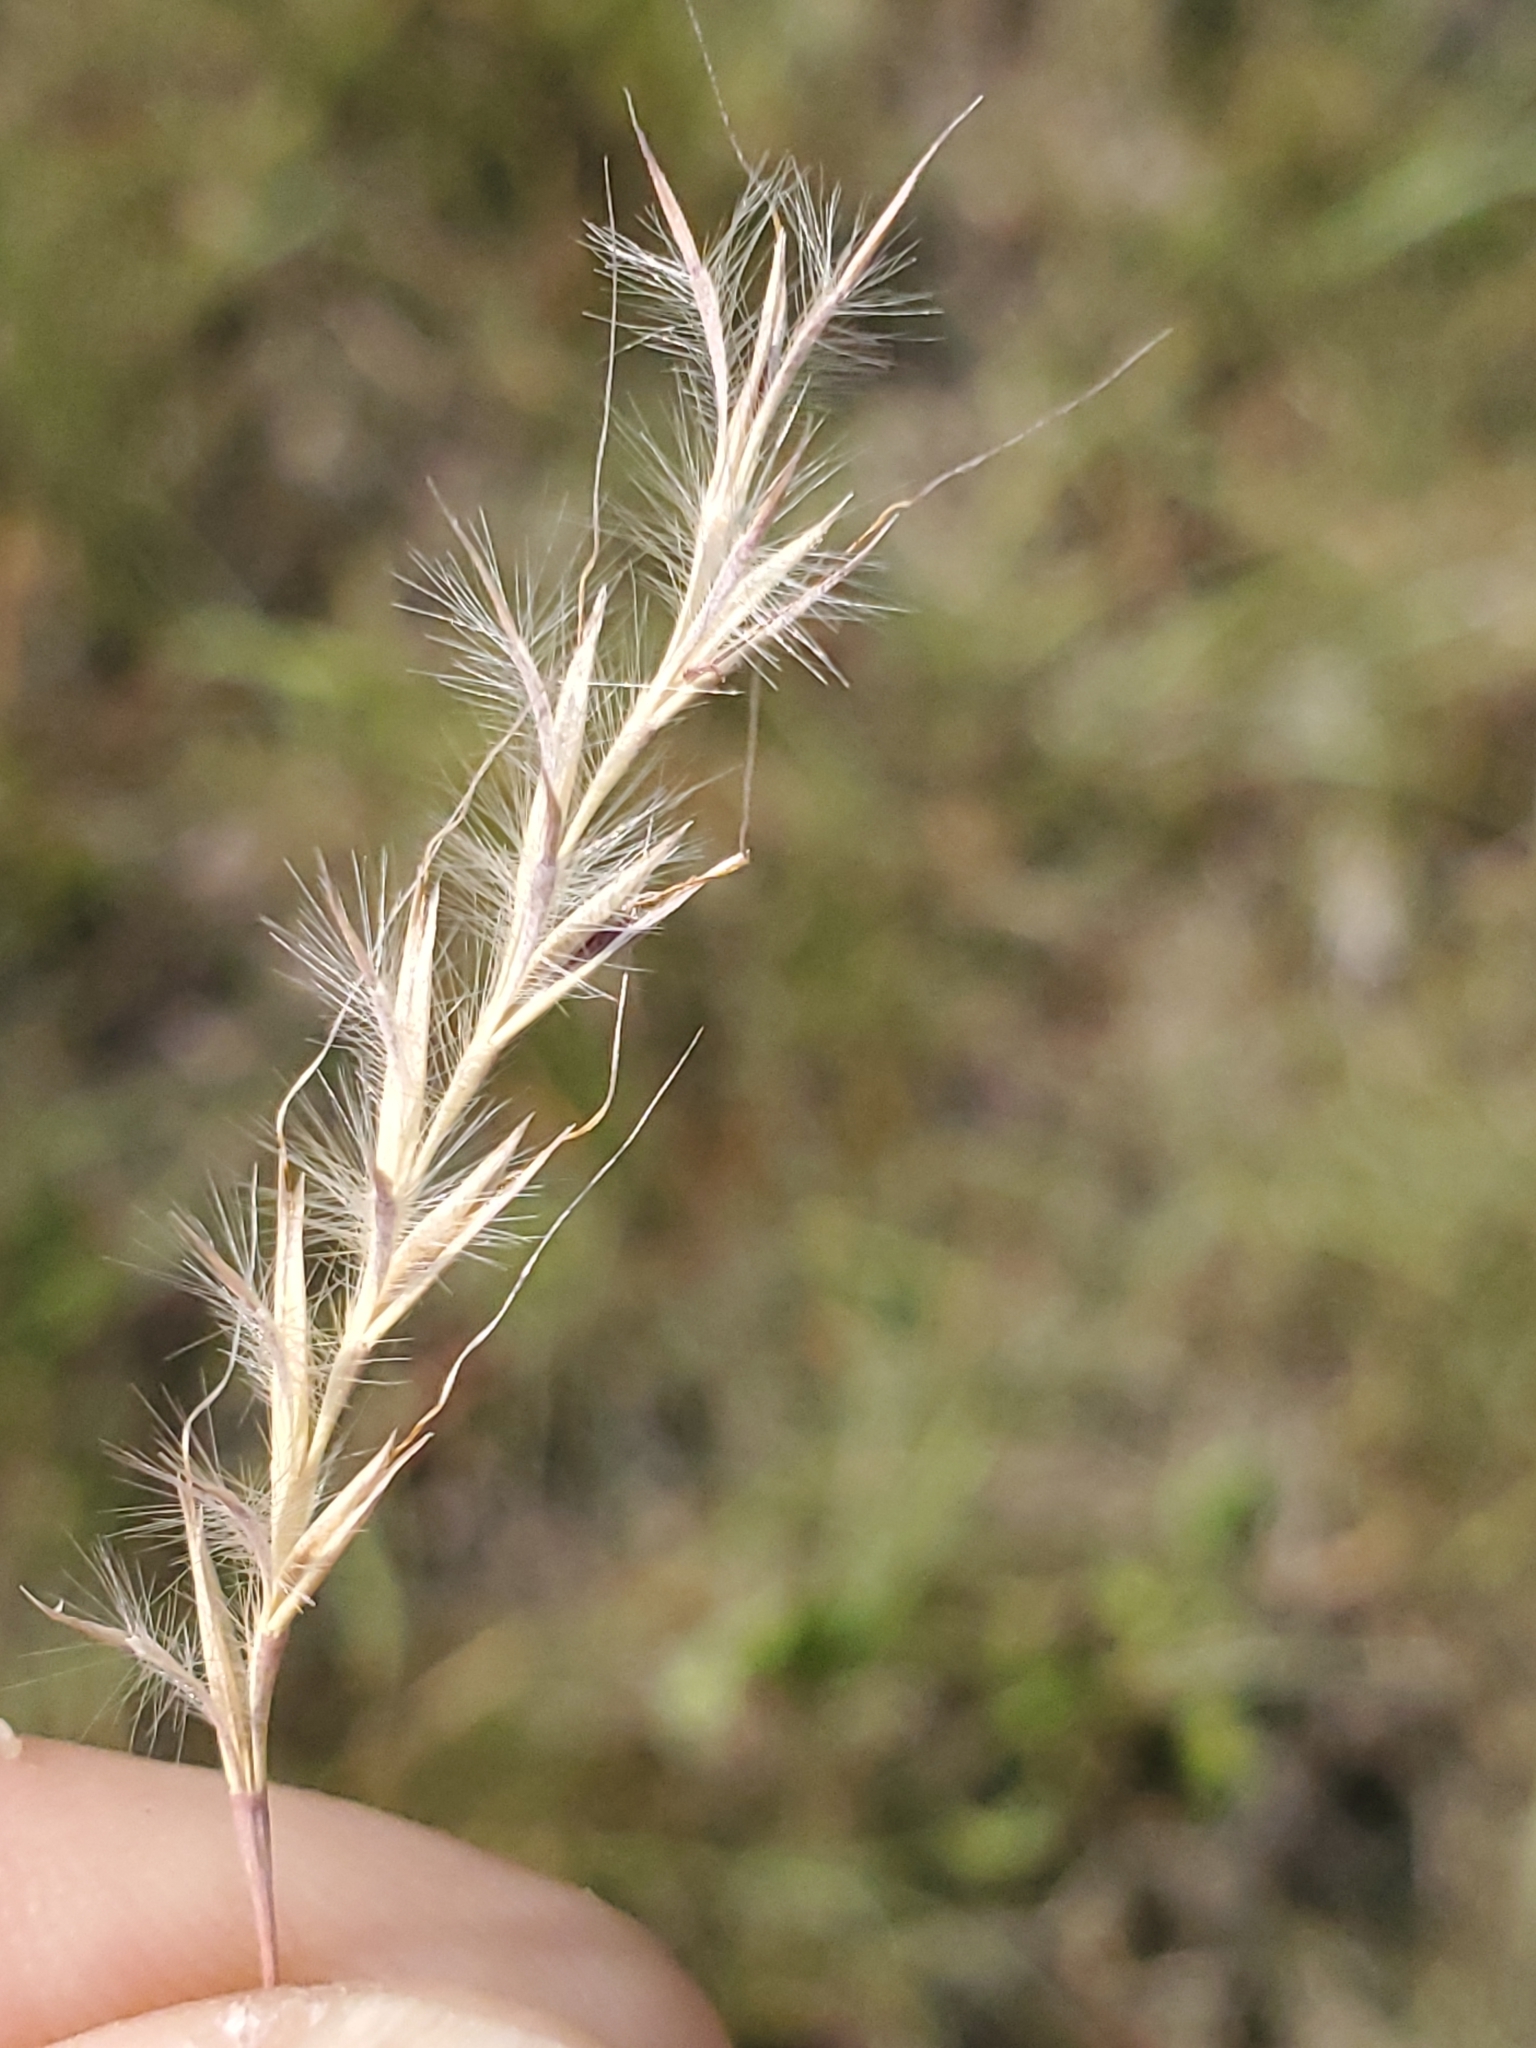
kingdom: Plantae
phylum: Tracheophyta
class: Liliopsida
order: Poales
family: Poaceae
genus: Schizachyrium
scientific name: Schizachyrium scoparium
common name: Little bluestem
